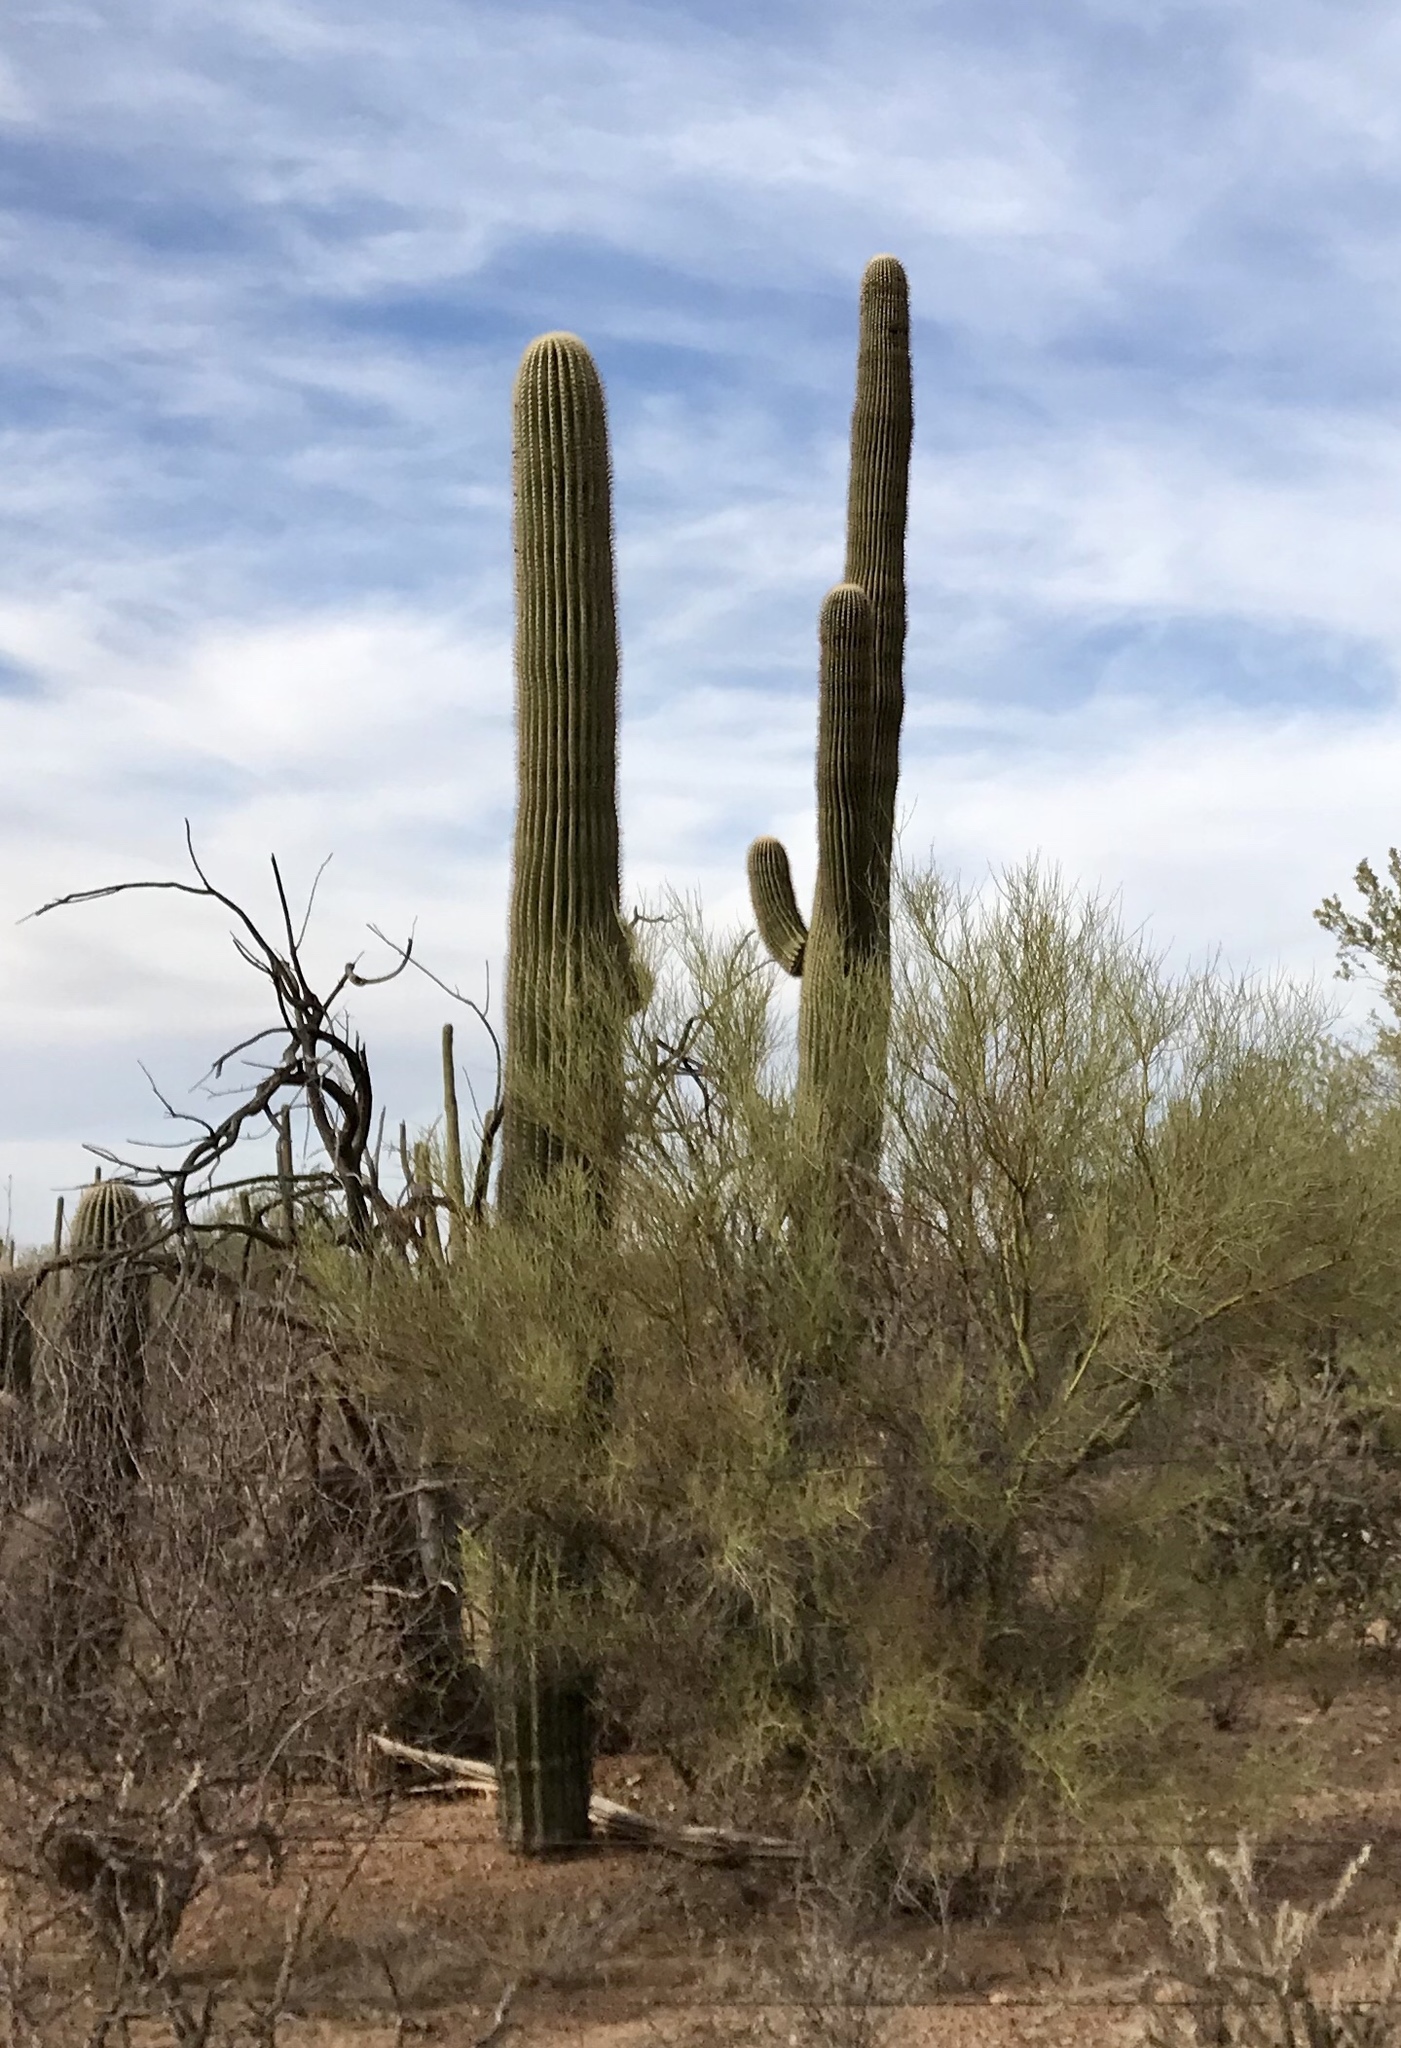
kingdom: Plantae
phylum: Tracheophyta
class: Magnoliopsida
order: Caryophyllales
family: Cactaceae
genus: Carnegiea
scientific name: Carnegiea gigantea
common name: Saguaro
